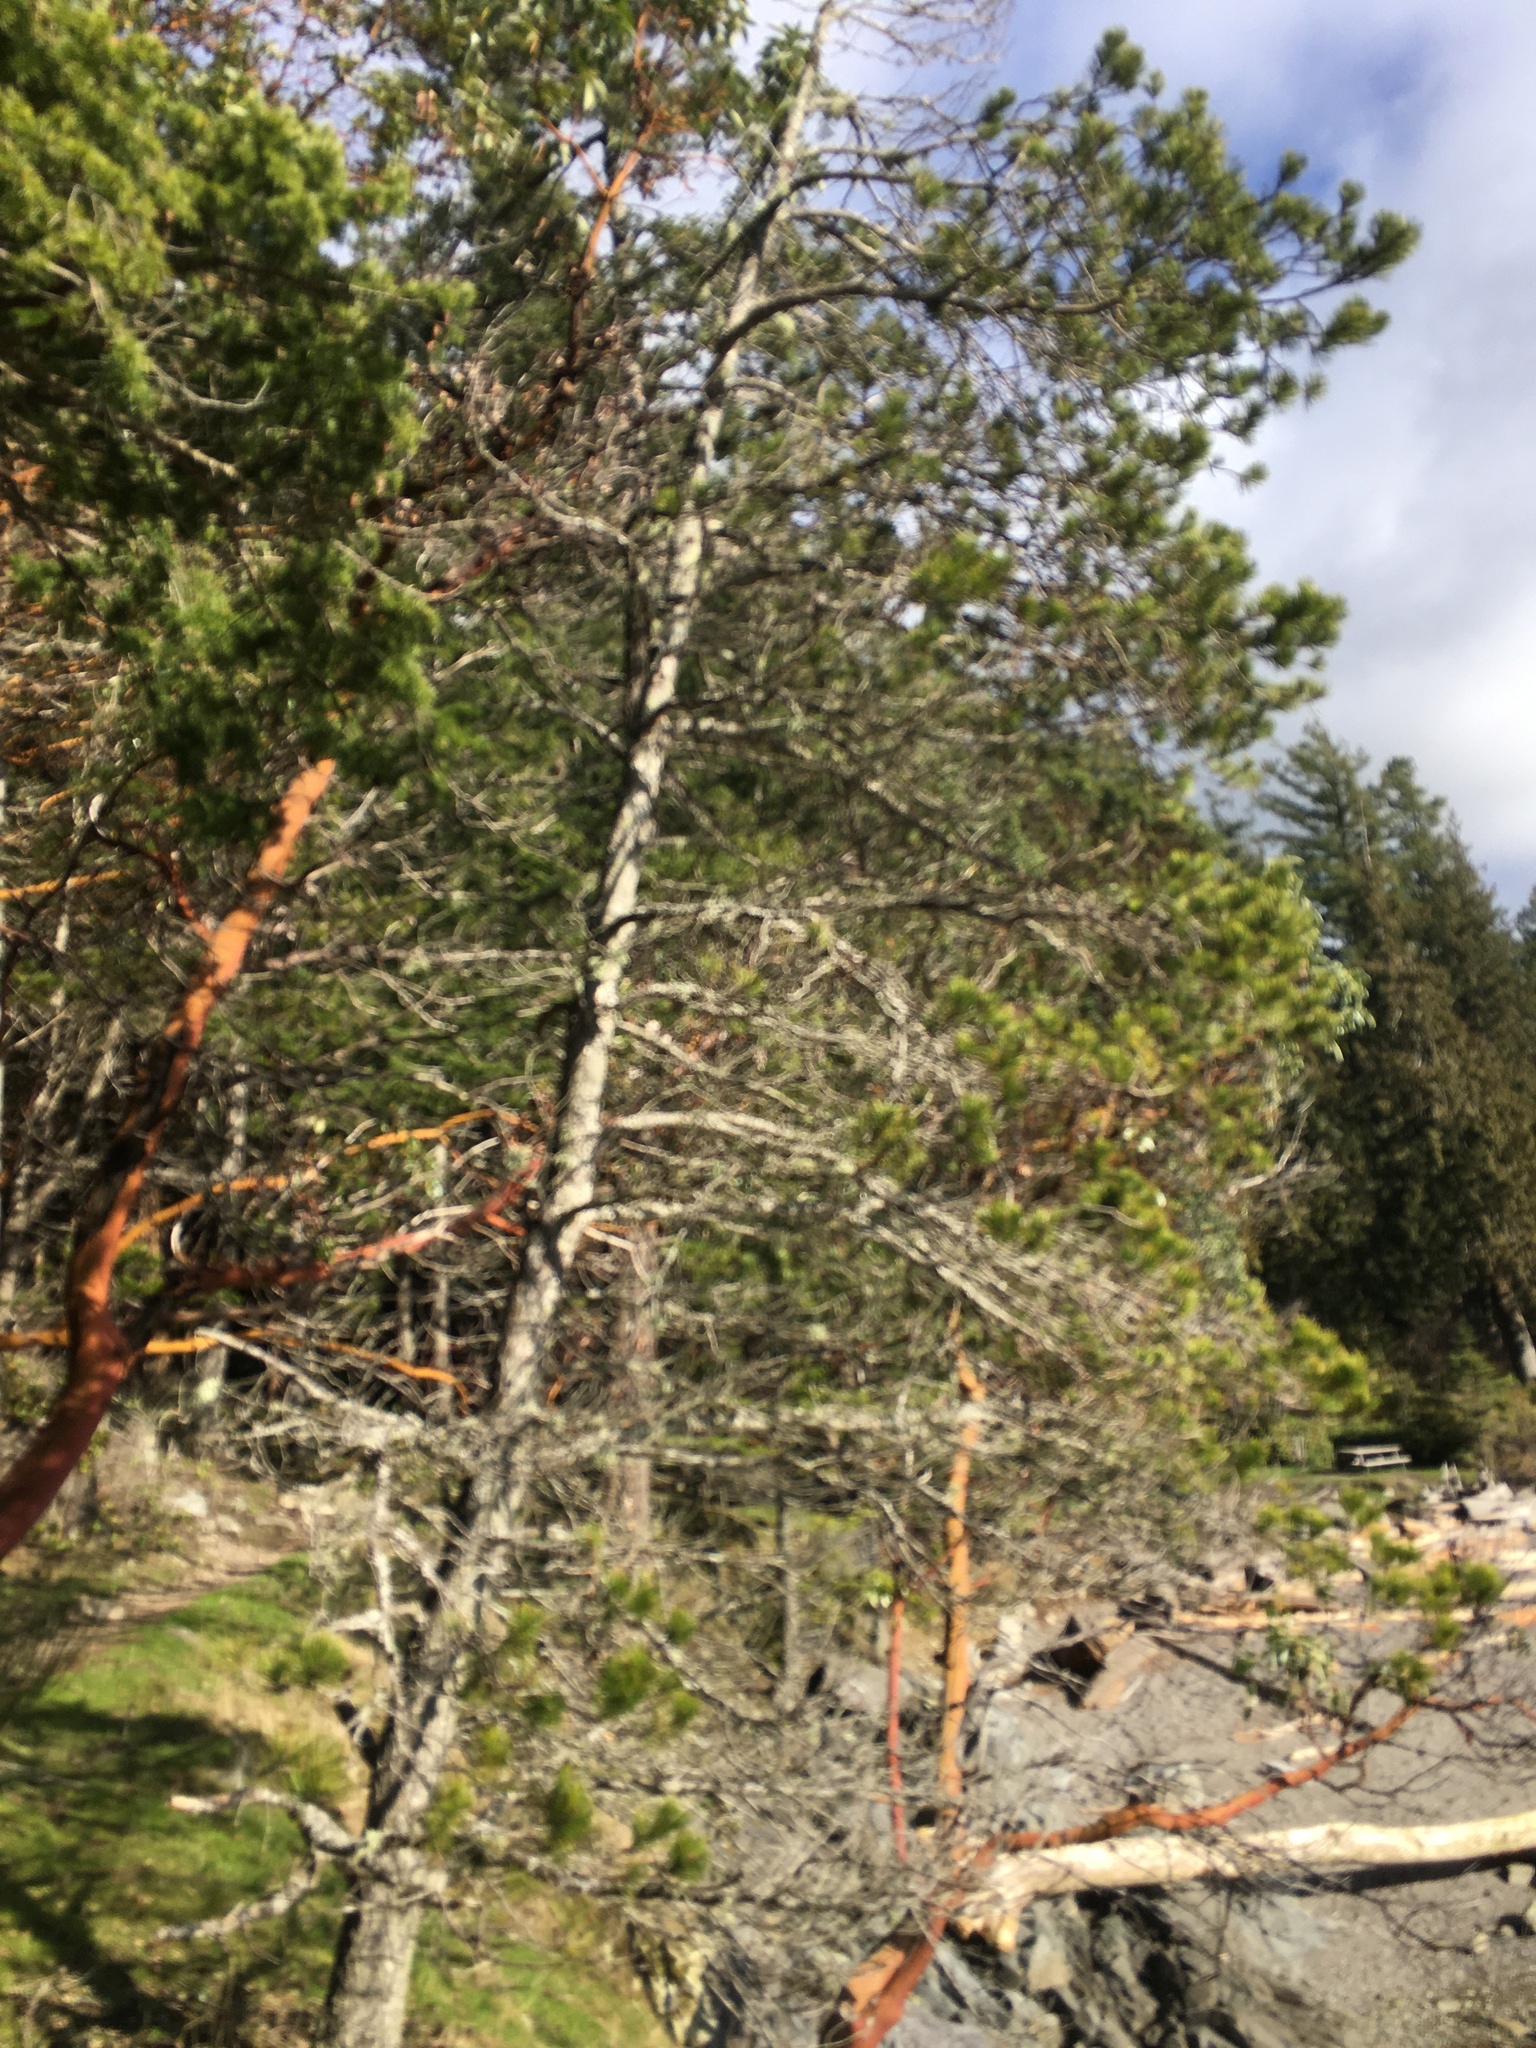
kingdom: Plantae
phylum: Tracheophyta
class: Pinopsida
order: Pinales
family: Pinaceae
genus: Pinus
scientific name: Pinus contorta
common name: Lodgepole pine
